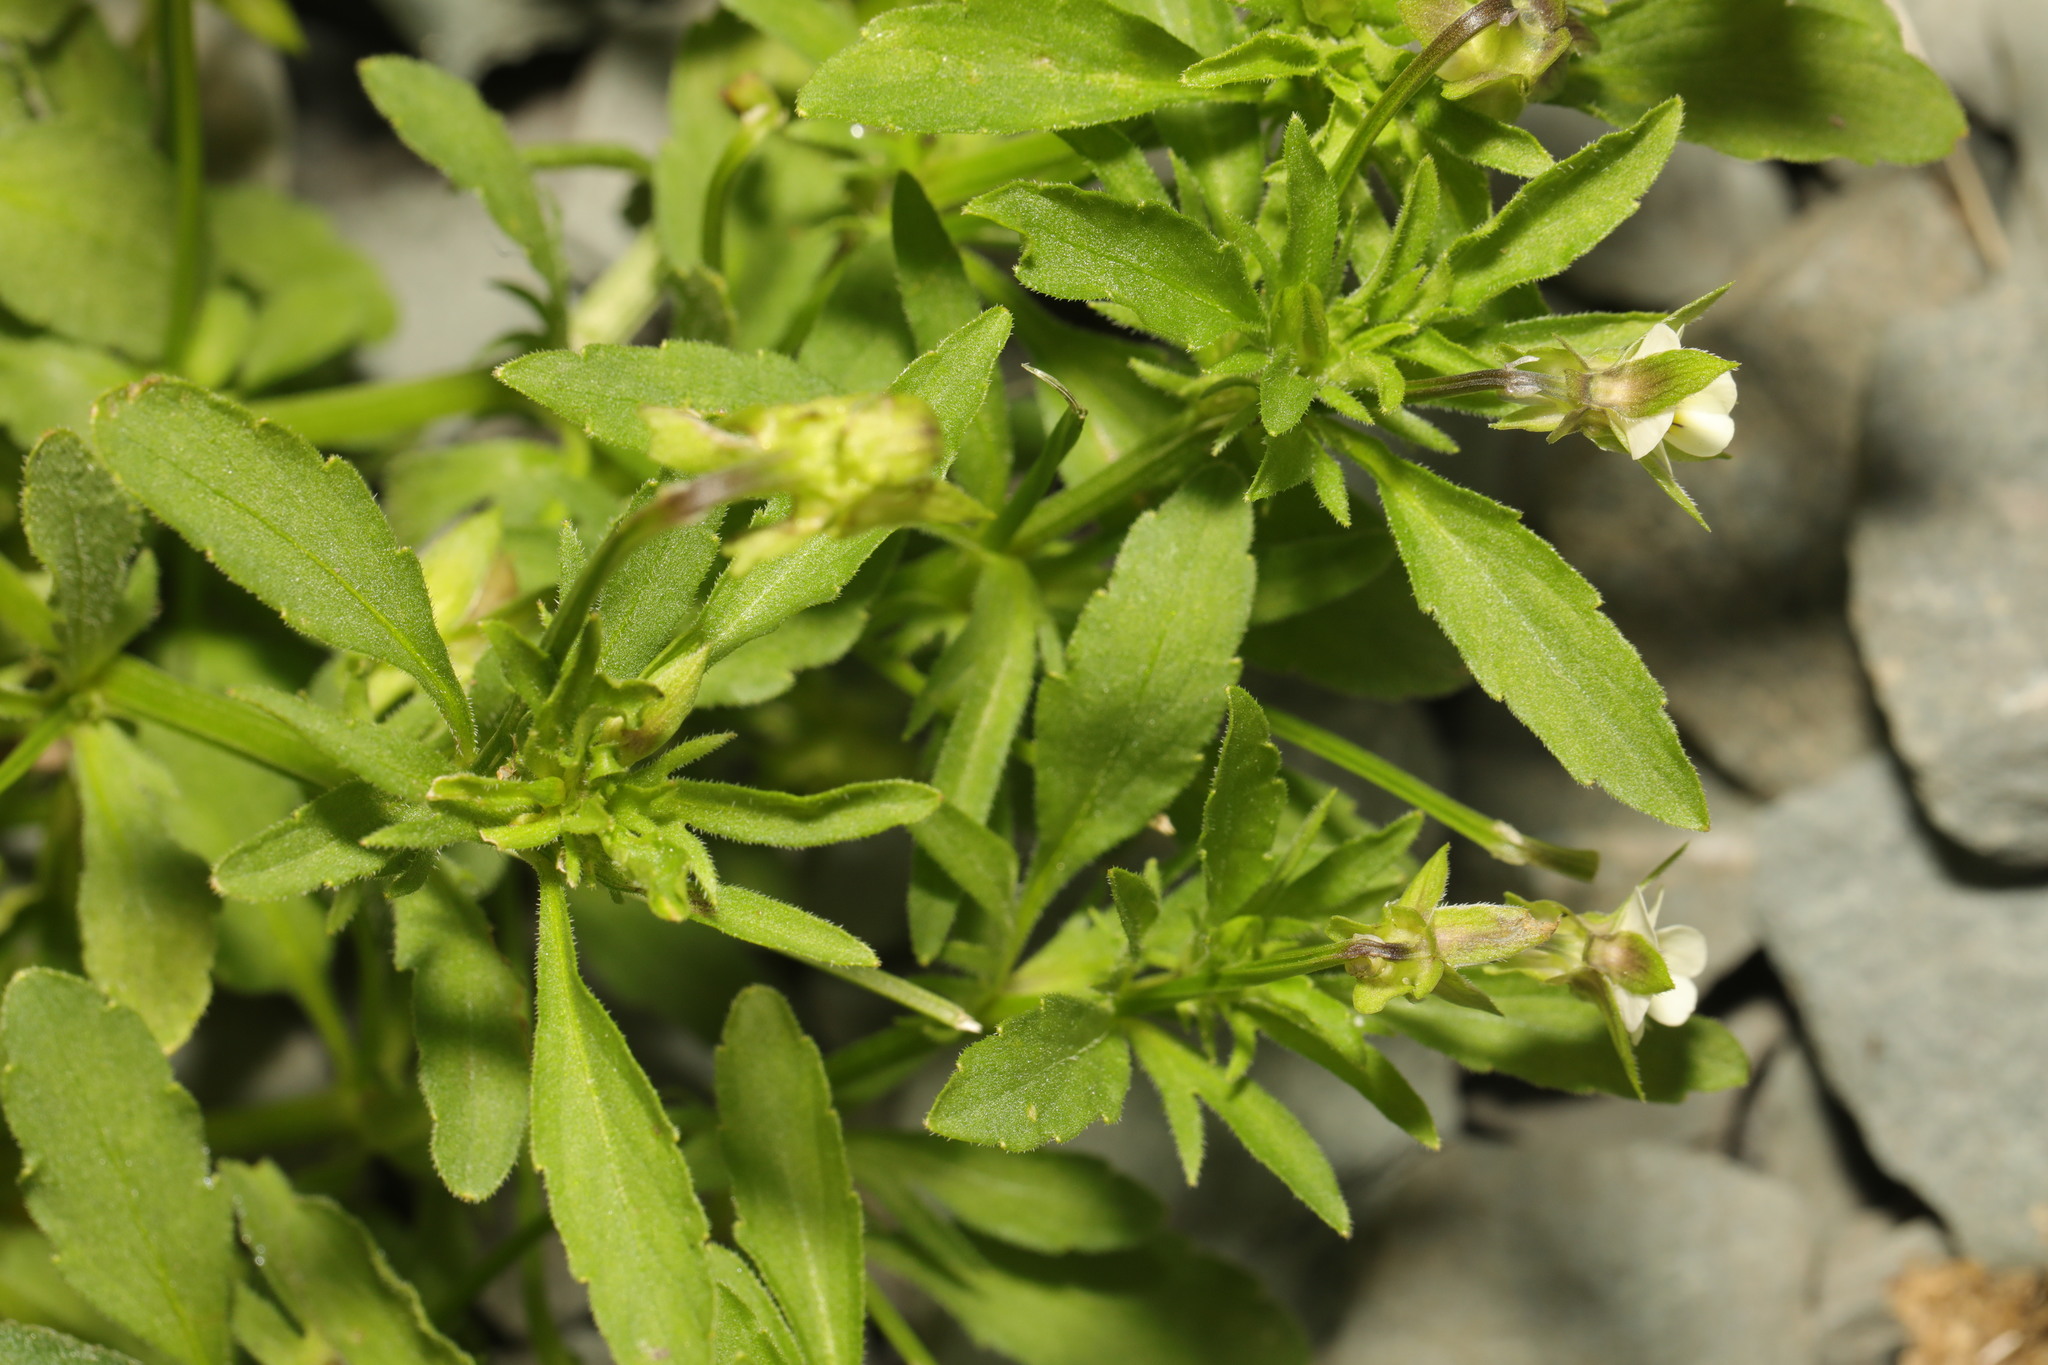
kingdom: Plantae
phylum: Tracheophyta
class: Magnoliopsida
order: Malpighiales
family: Violaceae
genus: Viola
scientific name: Viola arvensis
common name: Field pansy
